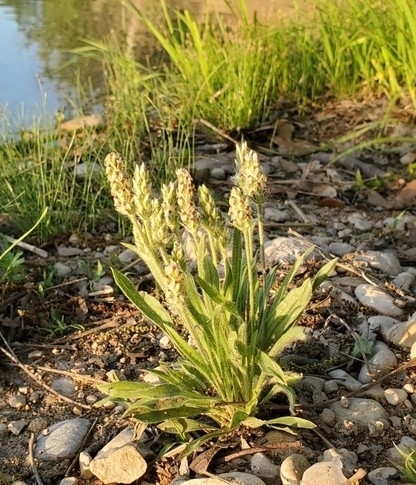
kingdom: Plantae
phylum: Tracheophyta
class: Magnoliopsida
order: Lamiales
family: Plantaginaceae
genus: Plantago
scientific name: Plantago helleri
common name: Heller's plantain
